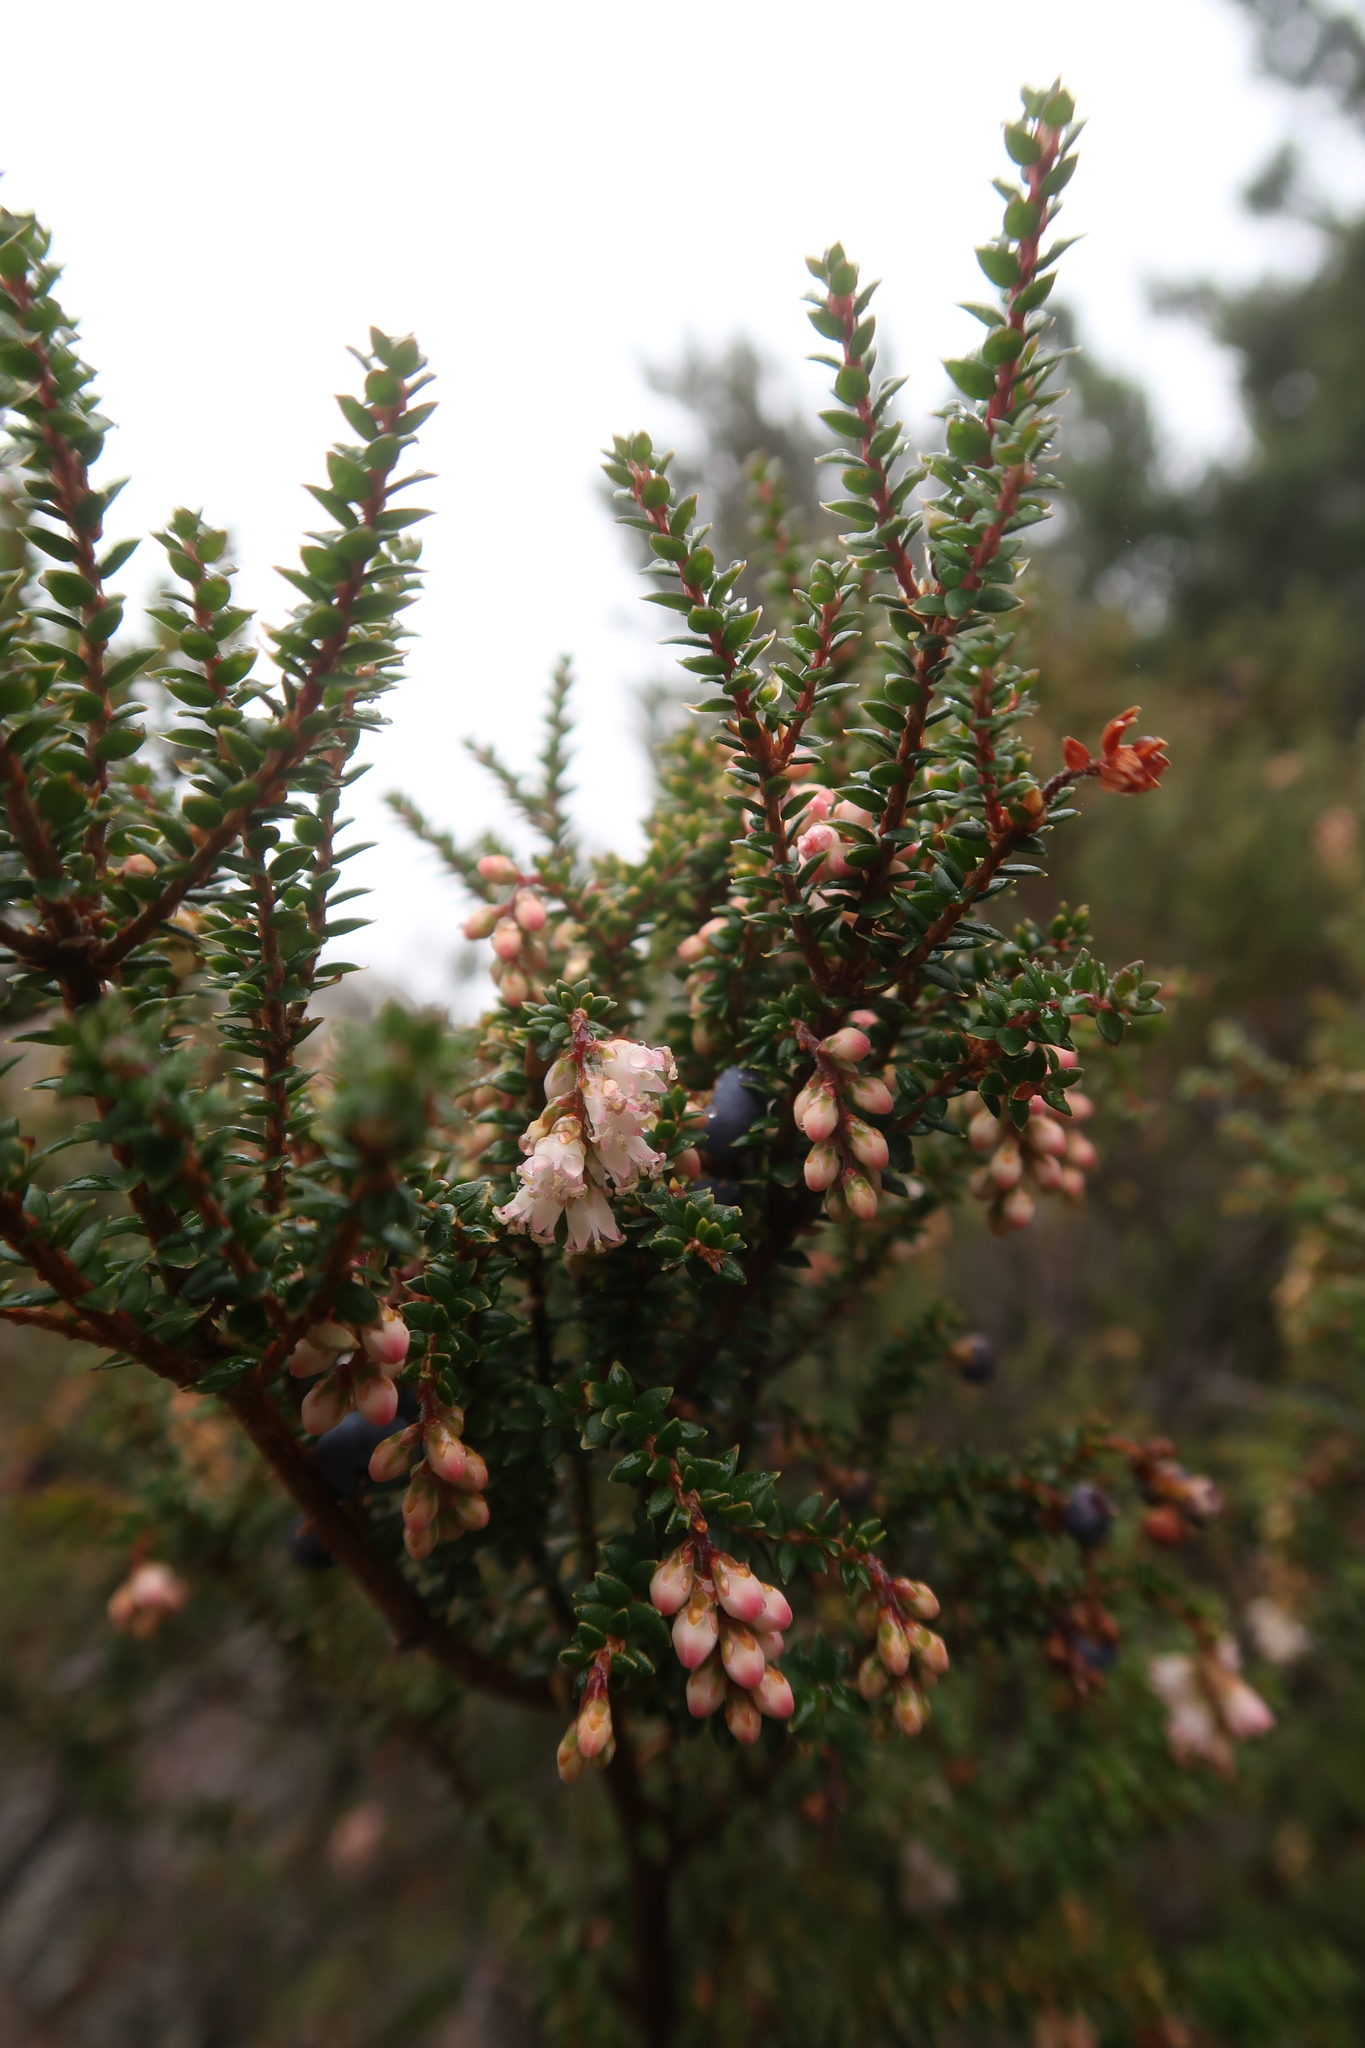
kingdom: Plantae
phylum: Tracheophyta
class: Magnoliopsida
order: Ericales
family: Ericaceae
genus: Trochocarpa
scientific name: Trochocarpa thymifolia
